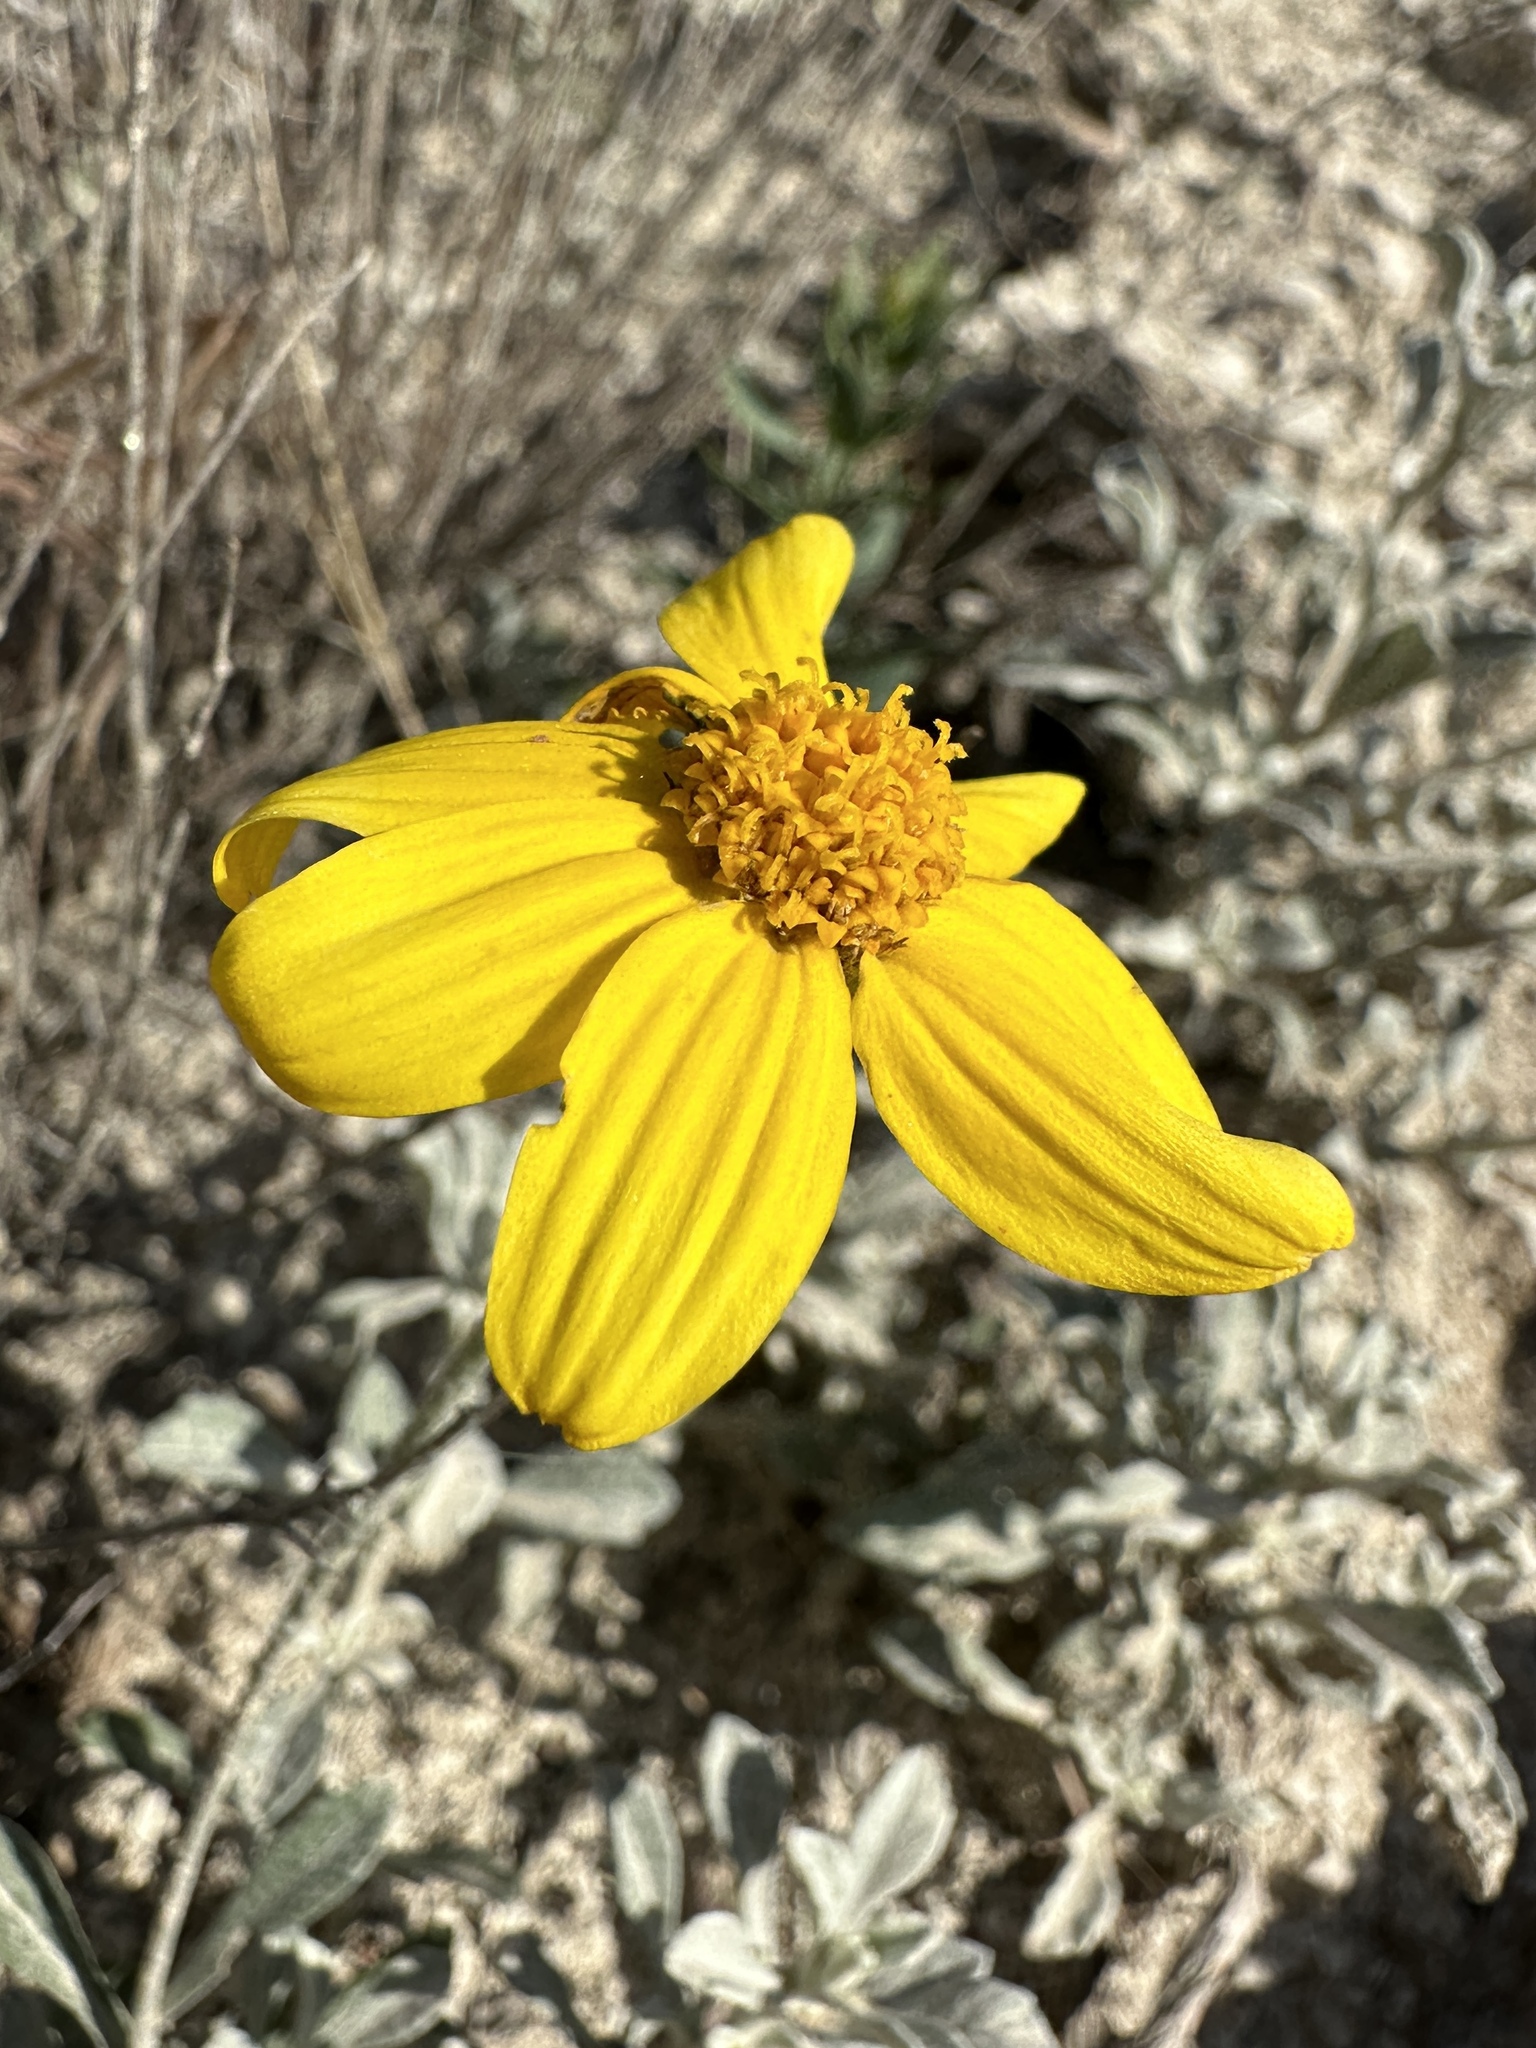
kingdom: Plantae
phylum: Tracheophyta
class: Magnoliopsida
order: Asterales
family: Asteraceae
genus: Eriophyllum
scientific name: Eriophyllum lanatum
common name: Common woolly-sunflower
